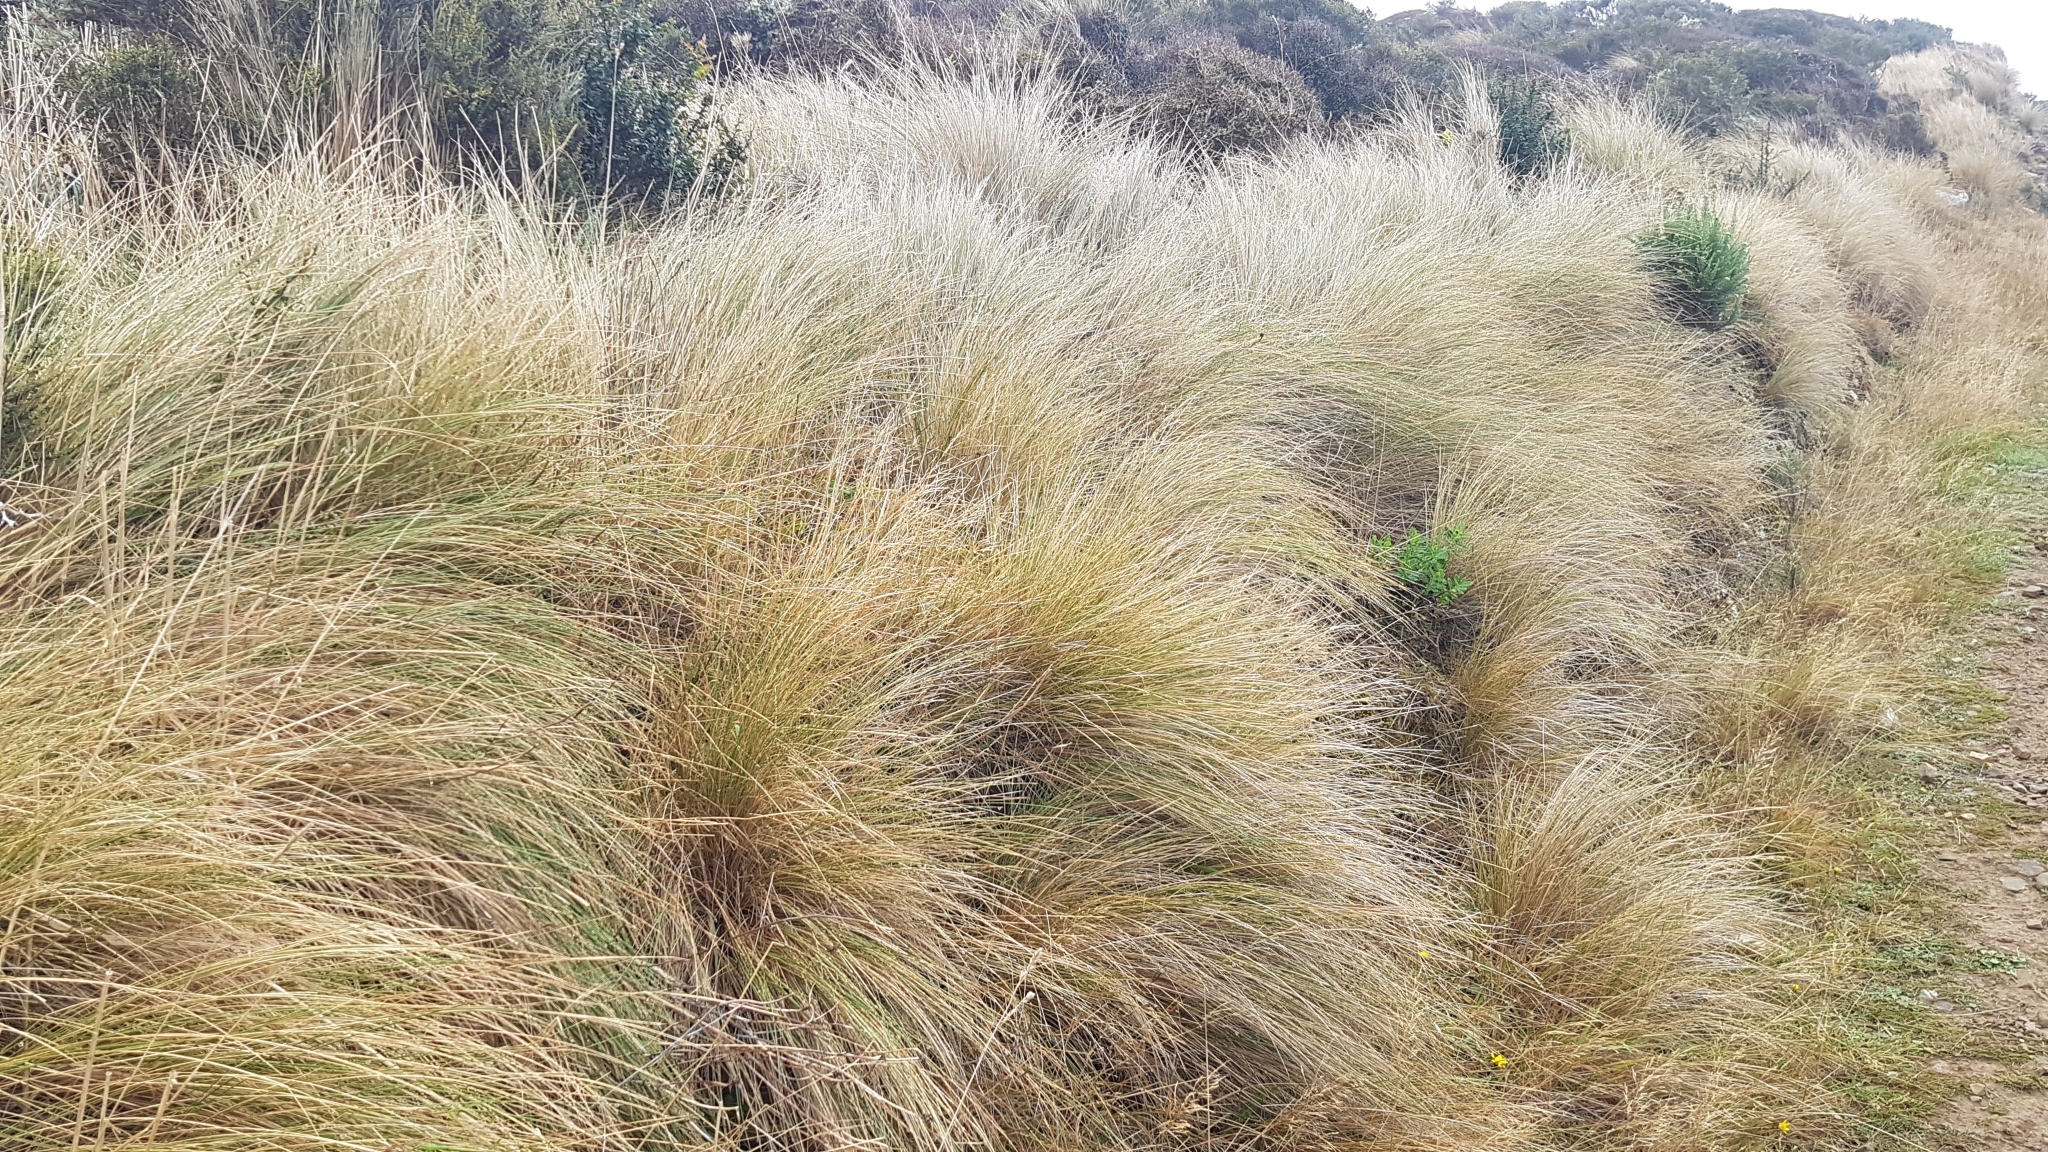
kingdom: Plantae
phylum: Tracheophyta
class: Liliopsida
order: Poales
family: Poaceae
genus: Poa
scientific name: Poa cita
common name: Silver tussock
